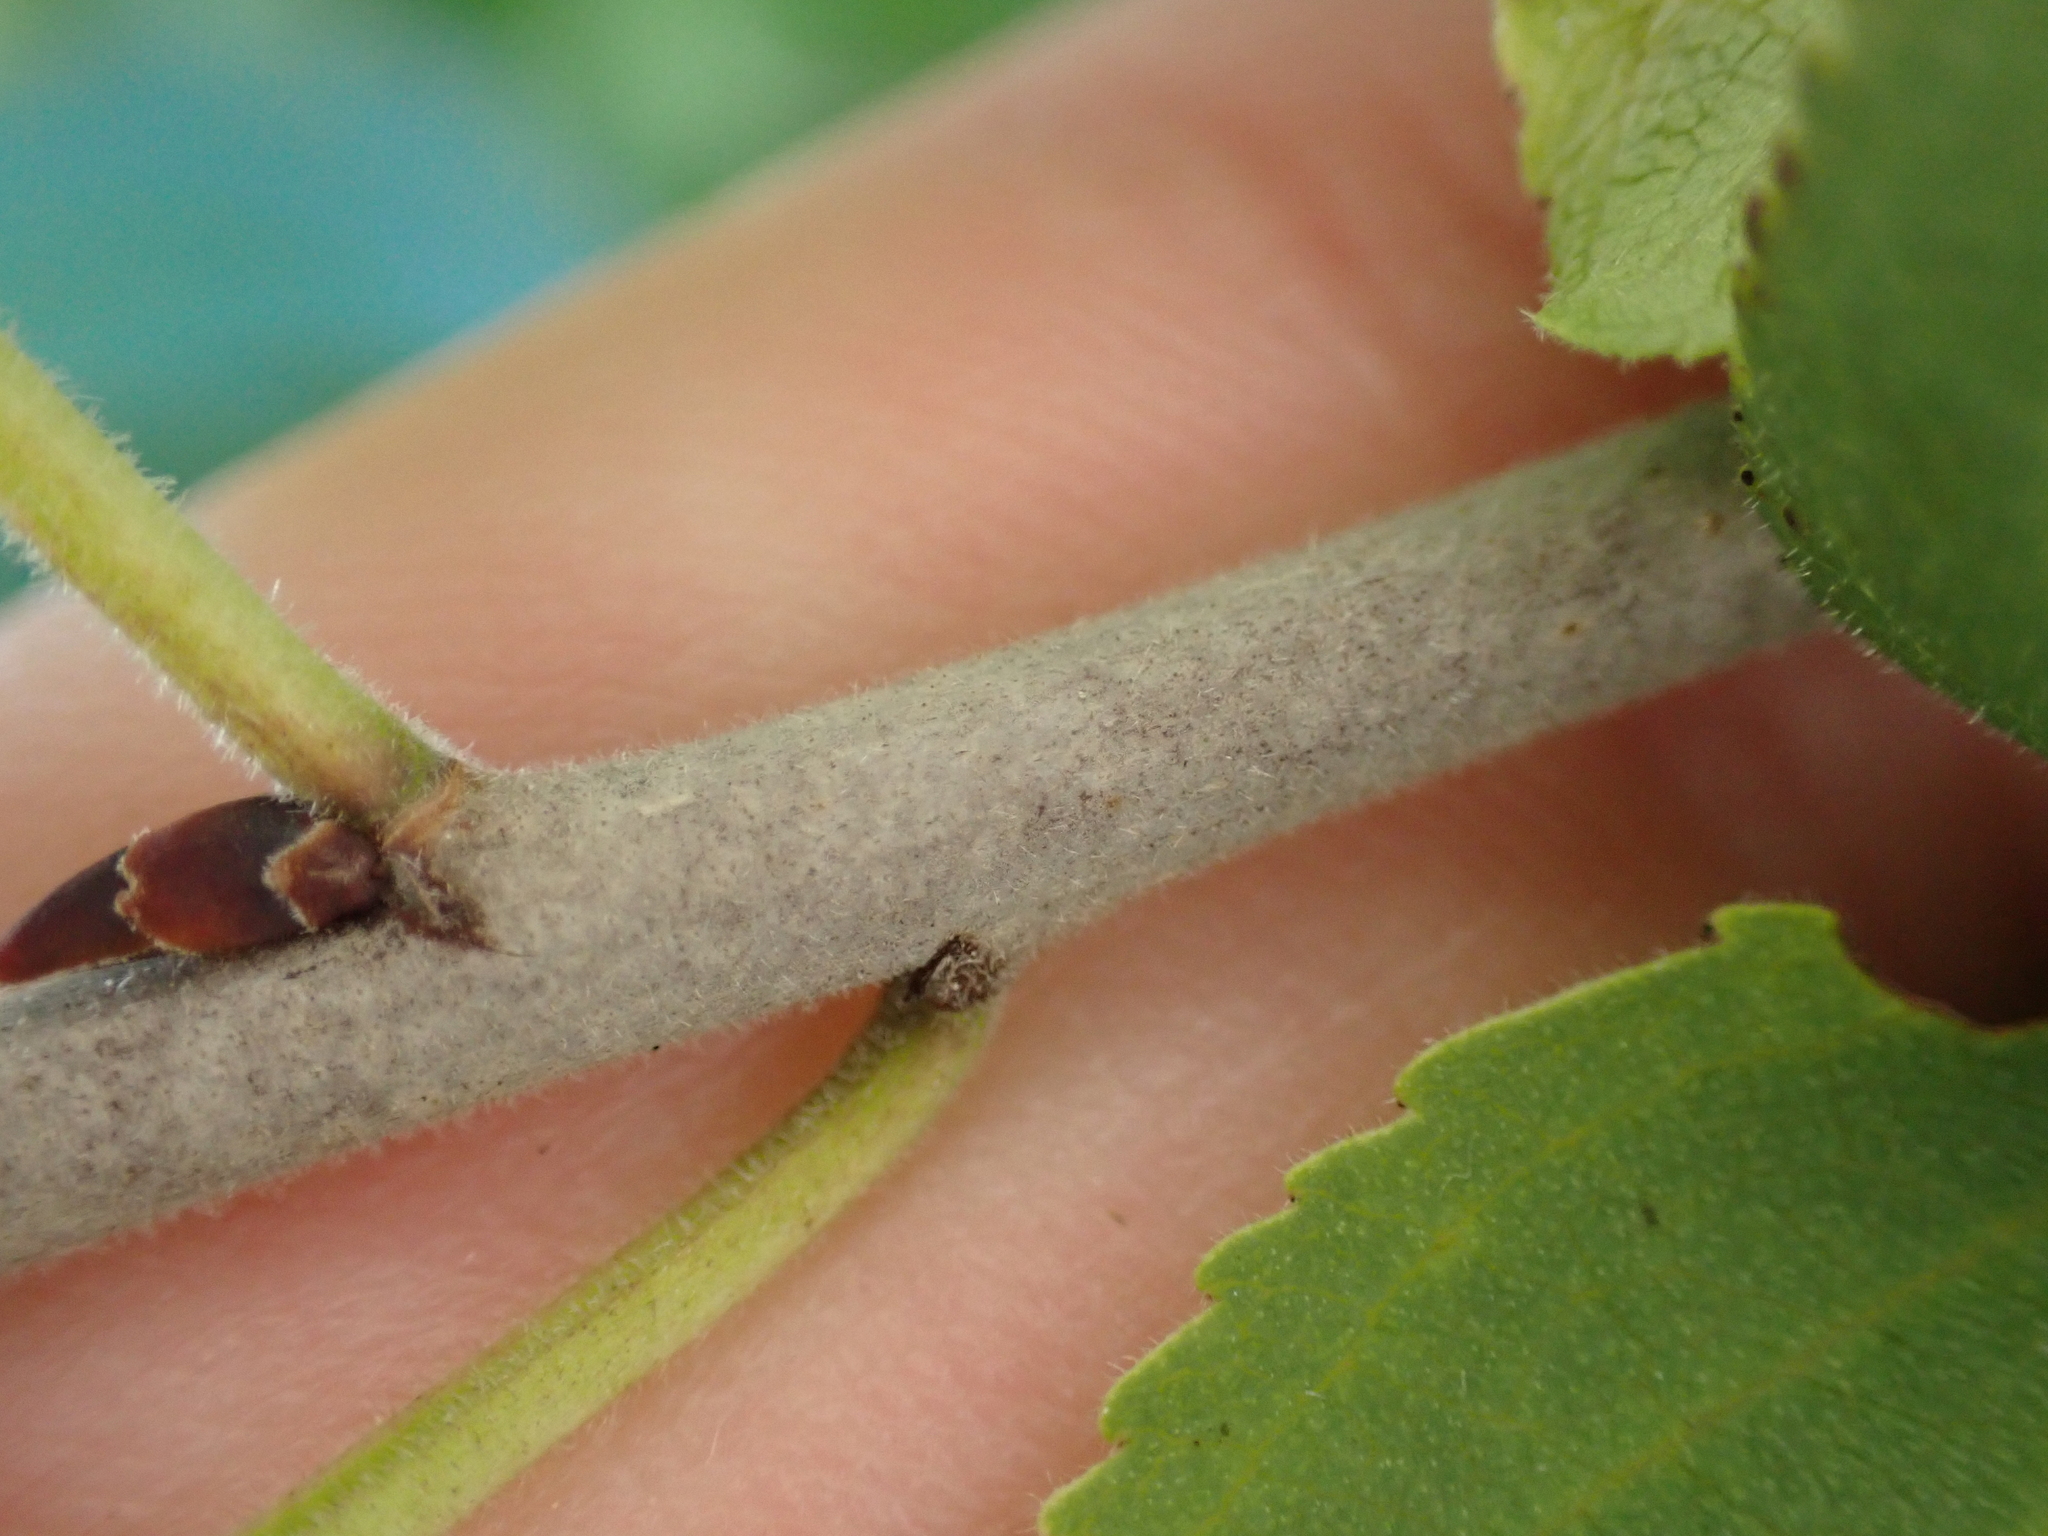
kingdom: Plantae
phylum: Tracheophyta
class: Magnoliopsida
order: Rosales
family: Rhamnaceae
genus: Rhamnus
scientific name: Rhamnus cathartica
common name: Common buckthorn
